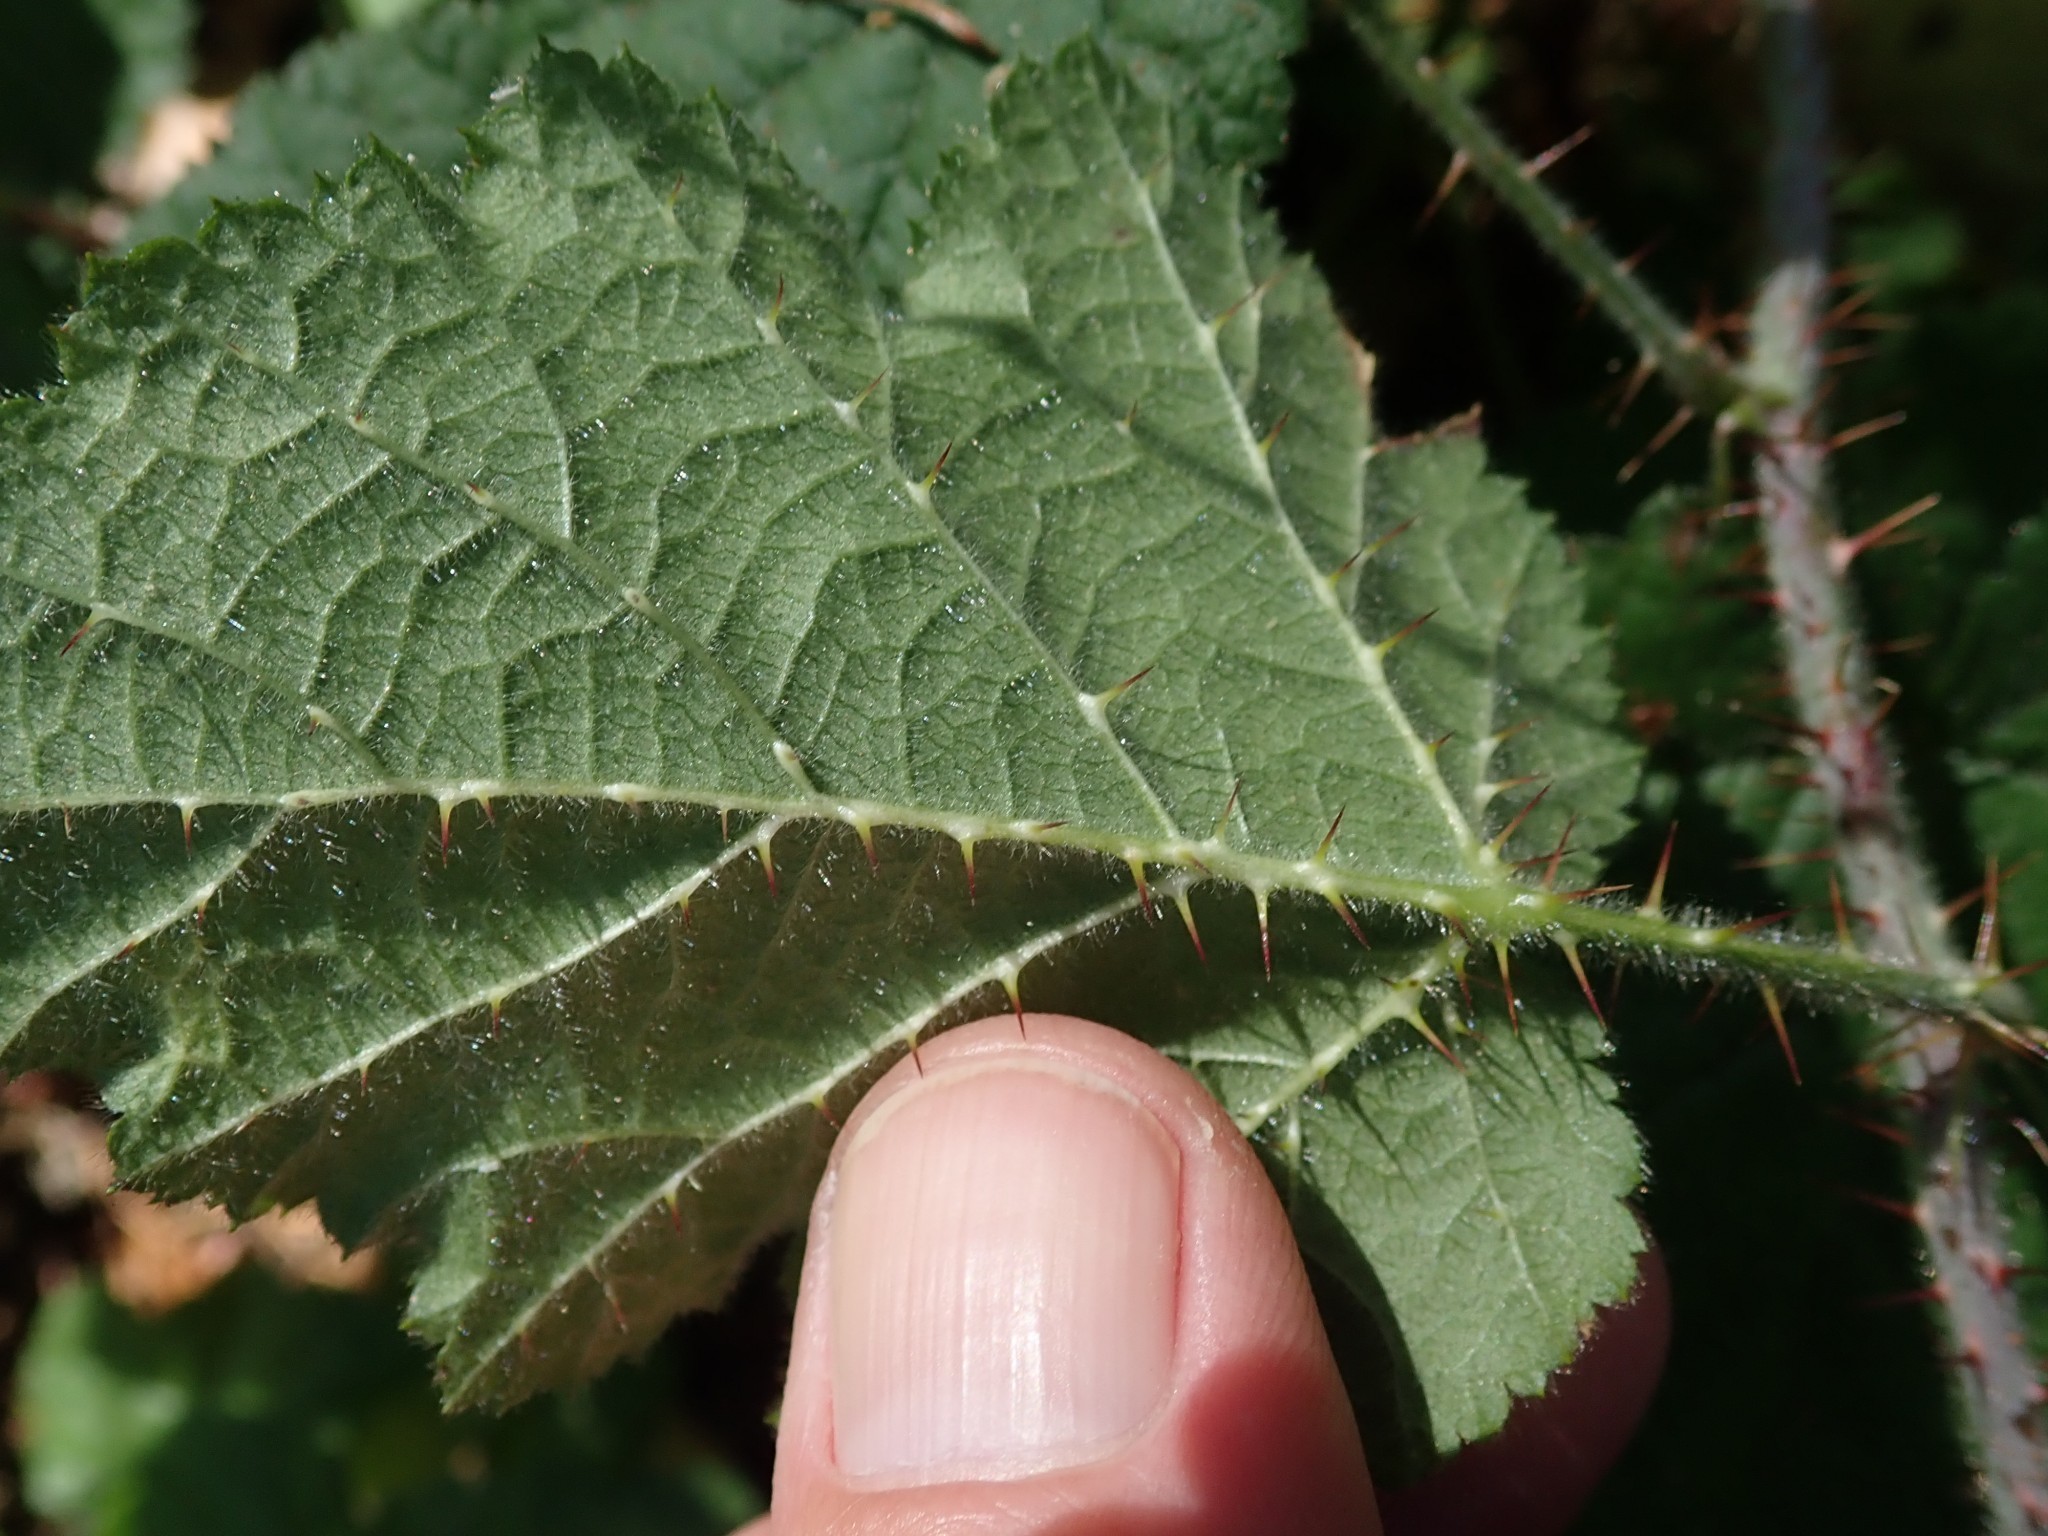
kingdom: Plantae
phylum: Tracheophyta
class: Magnoliopsida
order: Rosales
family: Rosaceae
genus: Rubus
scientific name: Rubus ursinus
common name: Pacific blackberry
